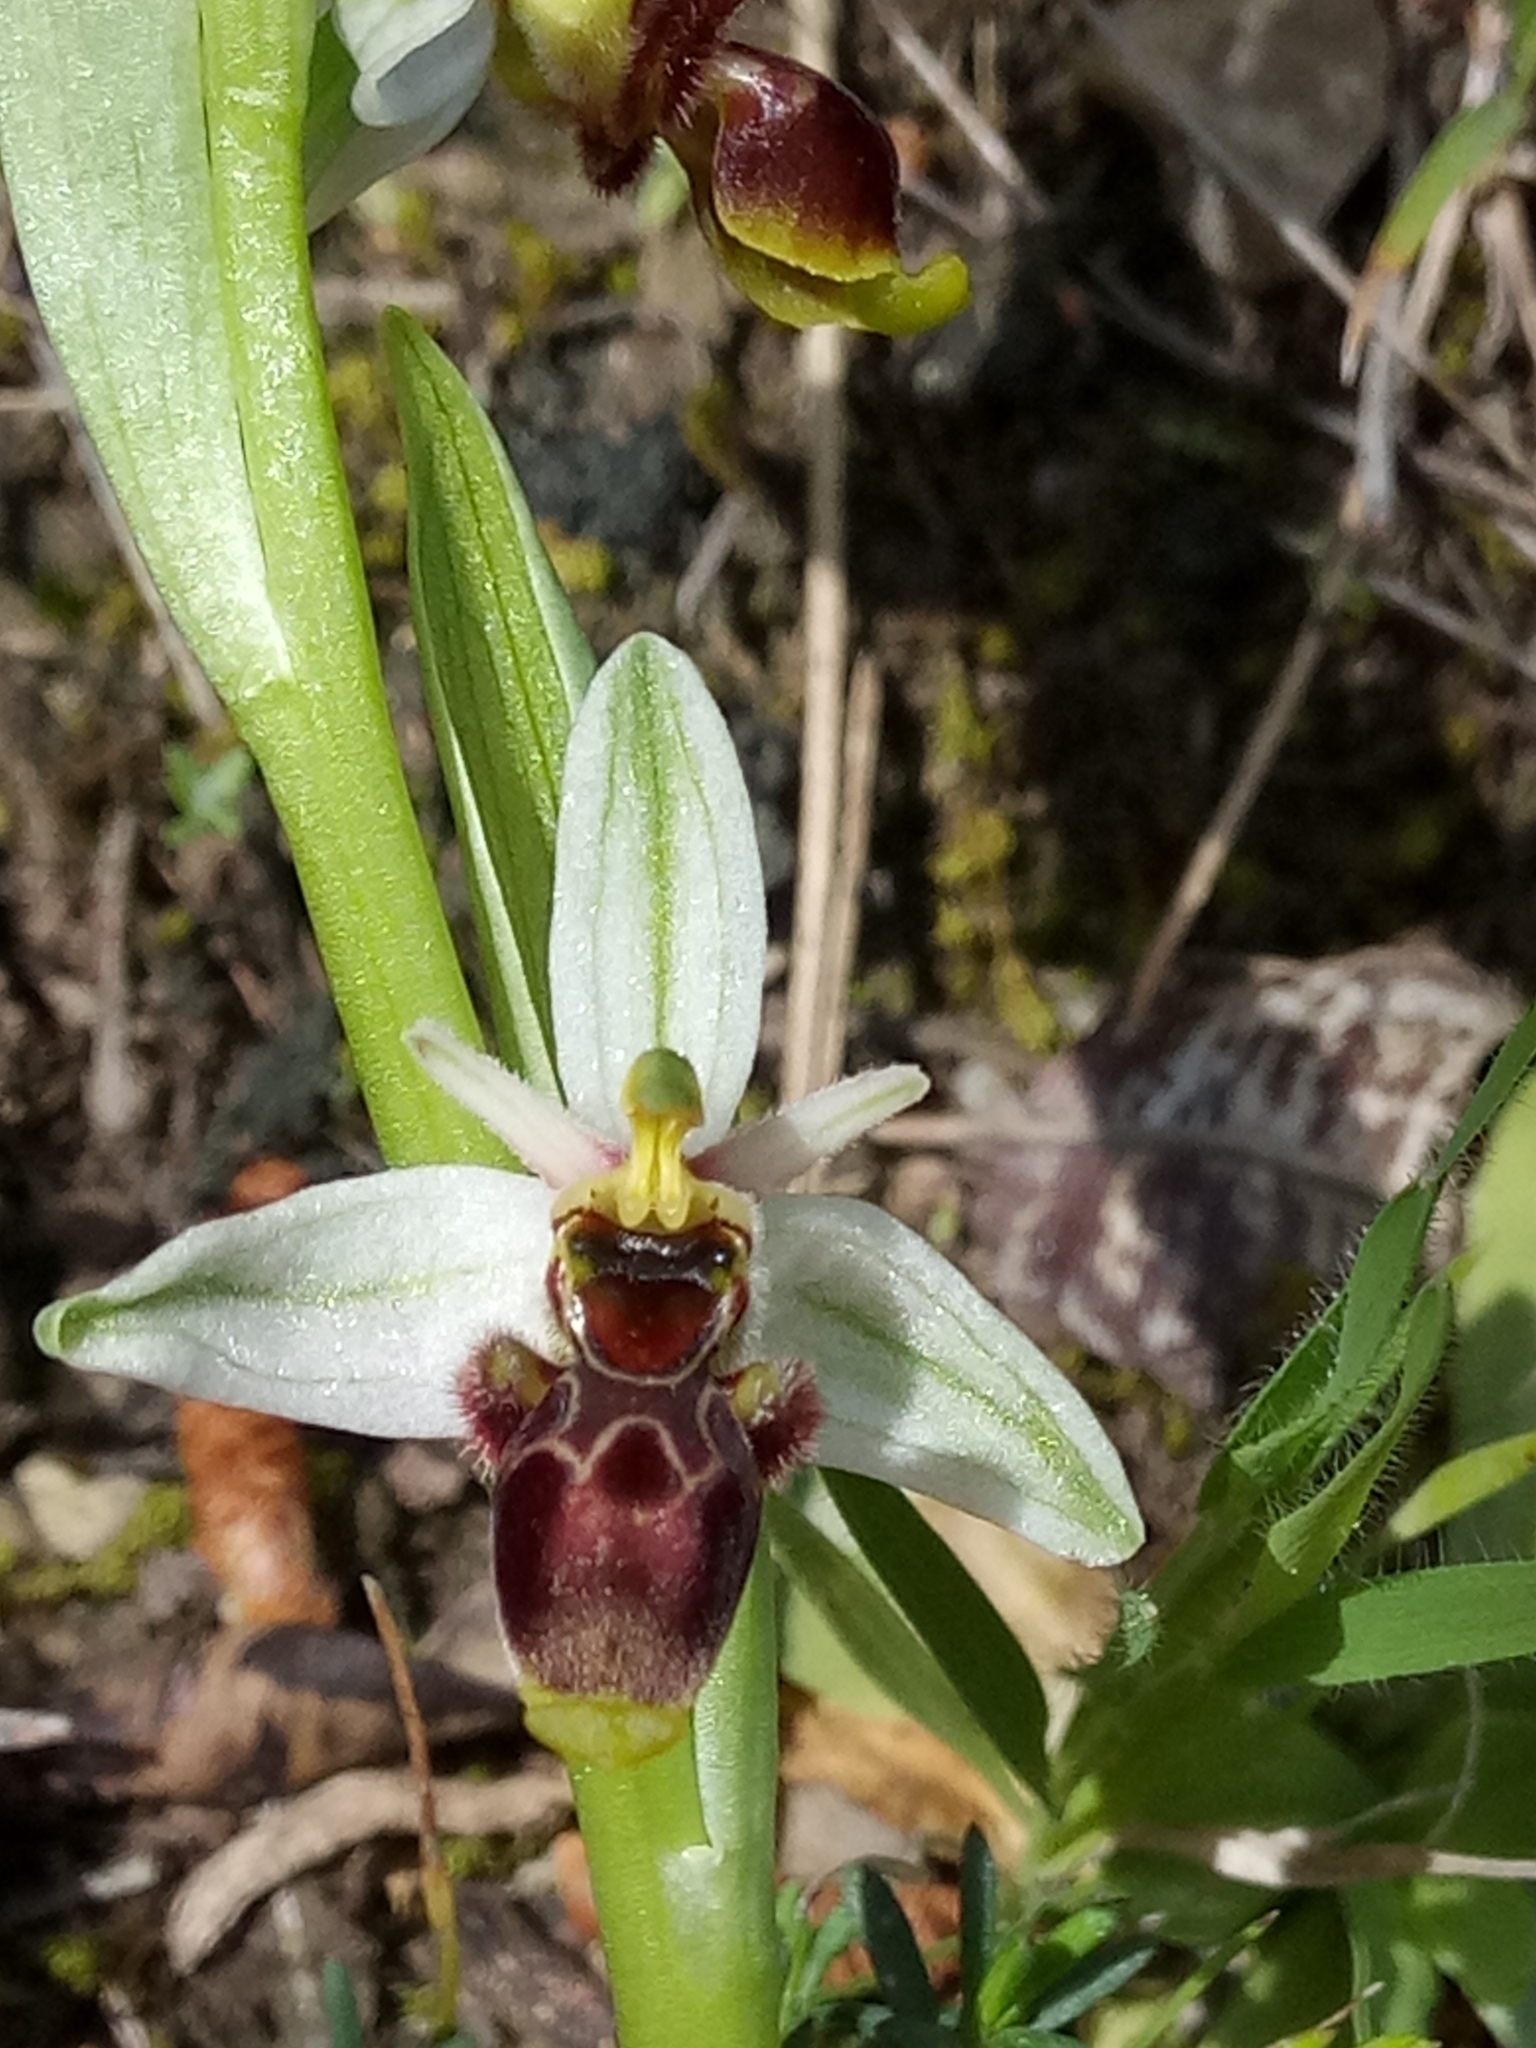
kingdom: Plantae
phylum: Tracheophyta
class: Liliopsida
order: Asparagales
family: Orchidaceae
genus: Ophrys
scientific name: Ophrys scolopax
